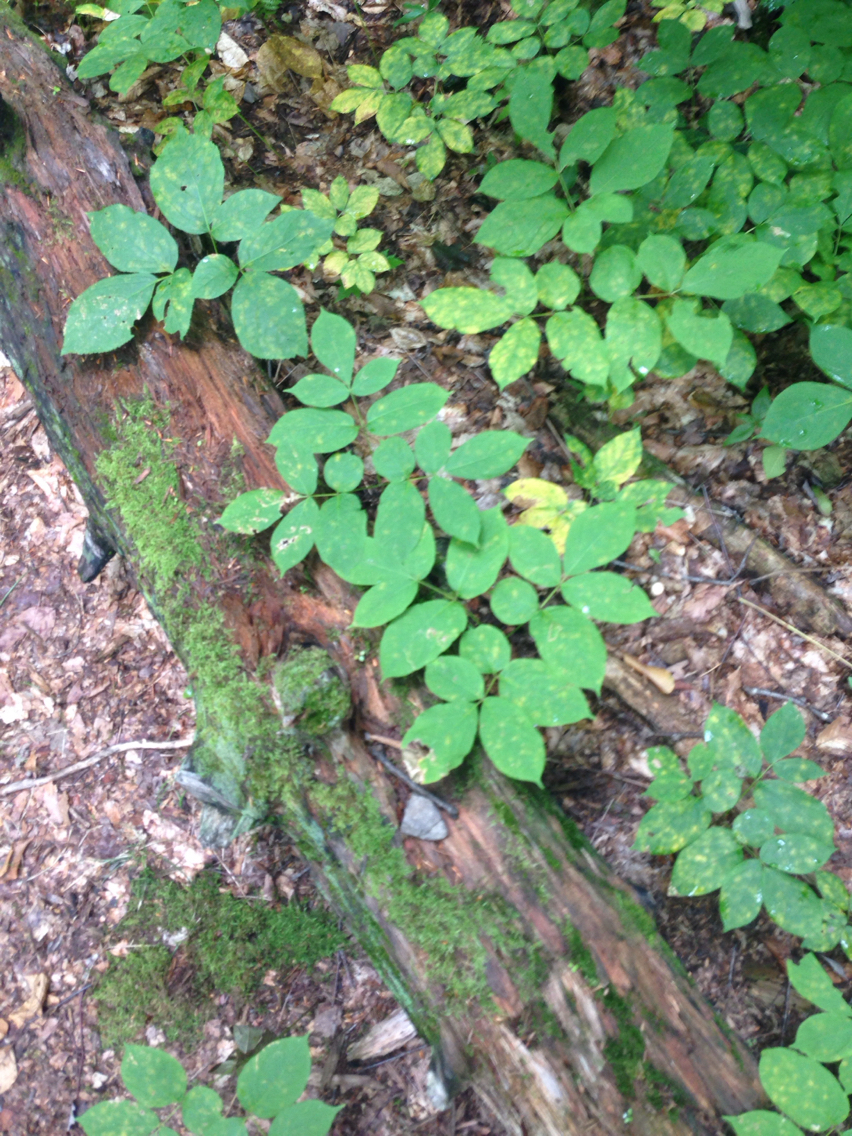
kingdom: Plantae
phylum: Tracheophyta
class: Magnoliopsida
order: Apiales
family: Araliaceae
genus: Aralia
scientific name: Aralia nudicaulis
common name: Wild sarsaparilla
